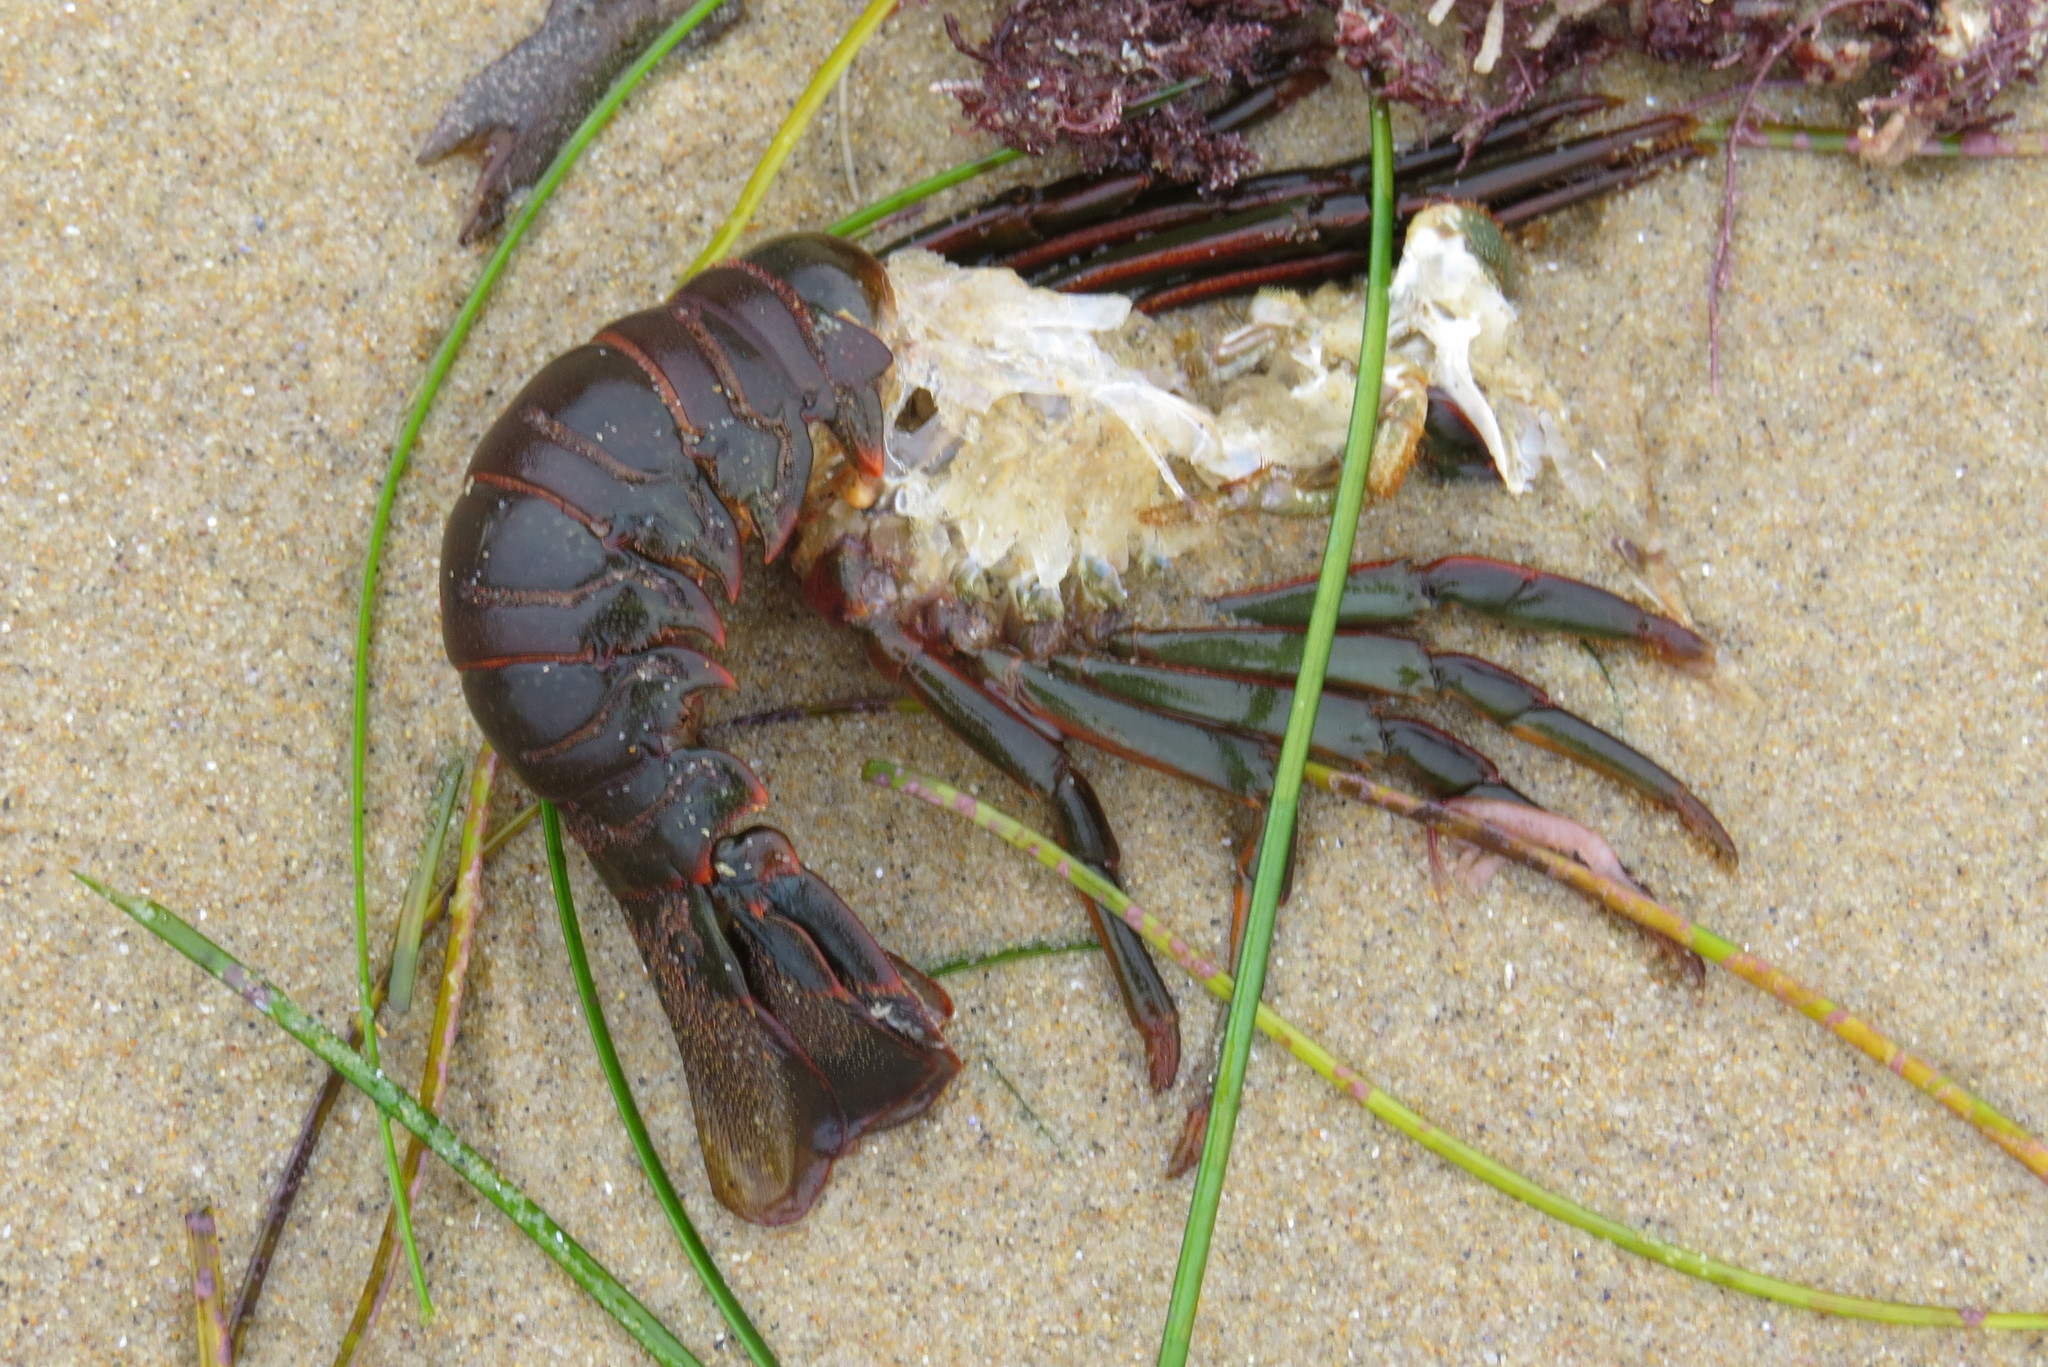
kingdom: Animalia
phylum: Arthropoda
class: Malacostraca
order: Decapoda
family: Palinuridae
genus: Panulirus
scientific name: Panulirus interruptus
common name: California spiny lobster
